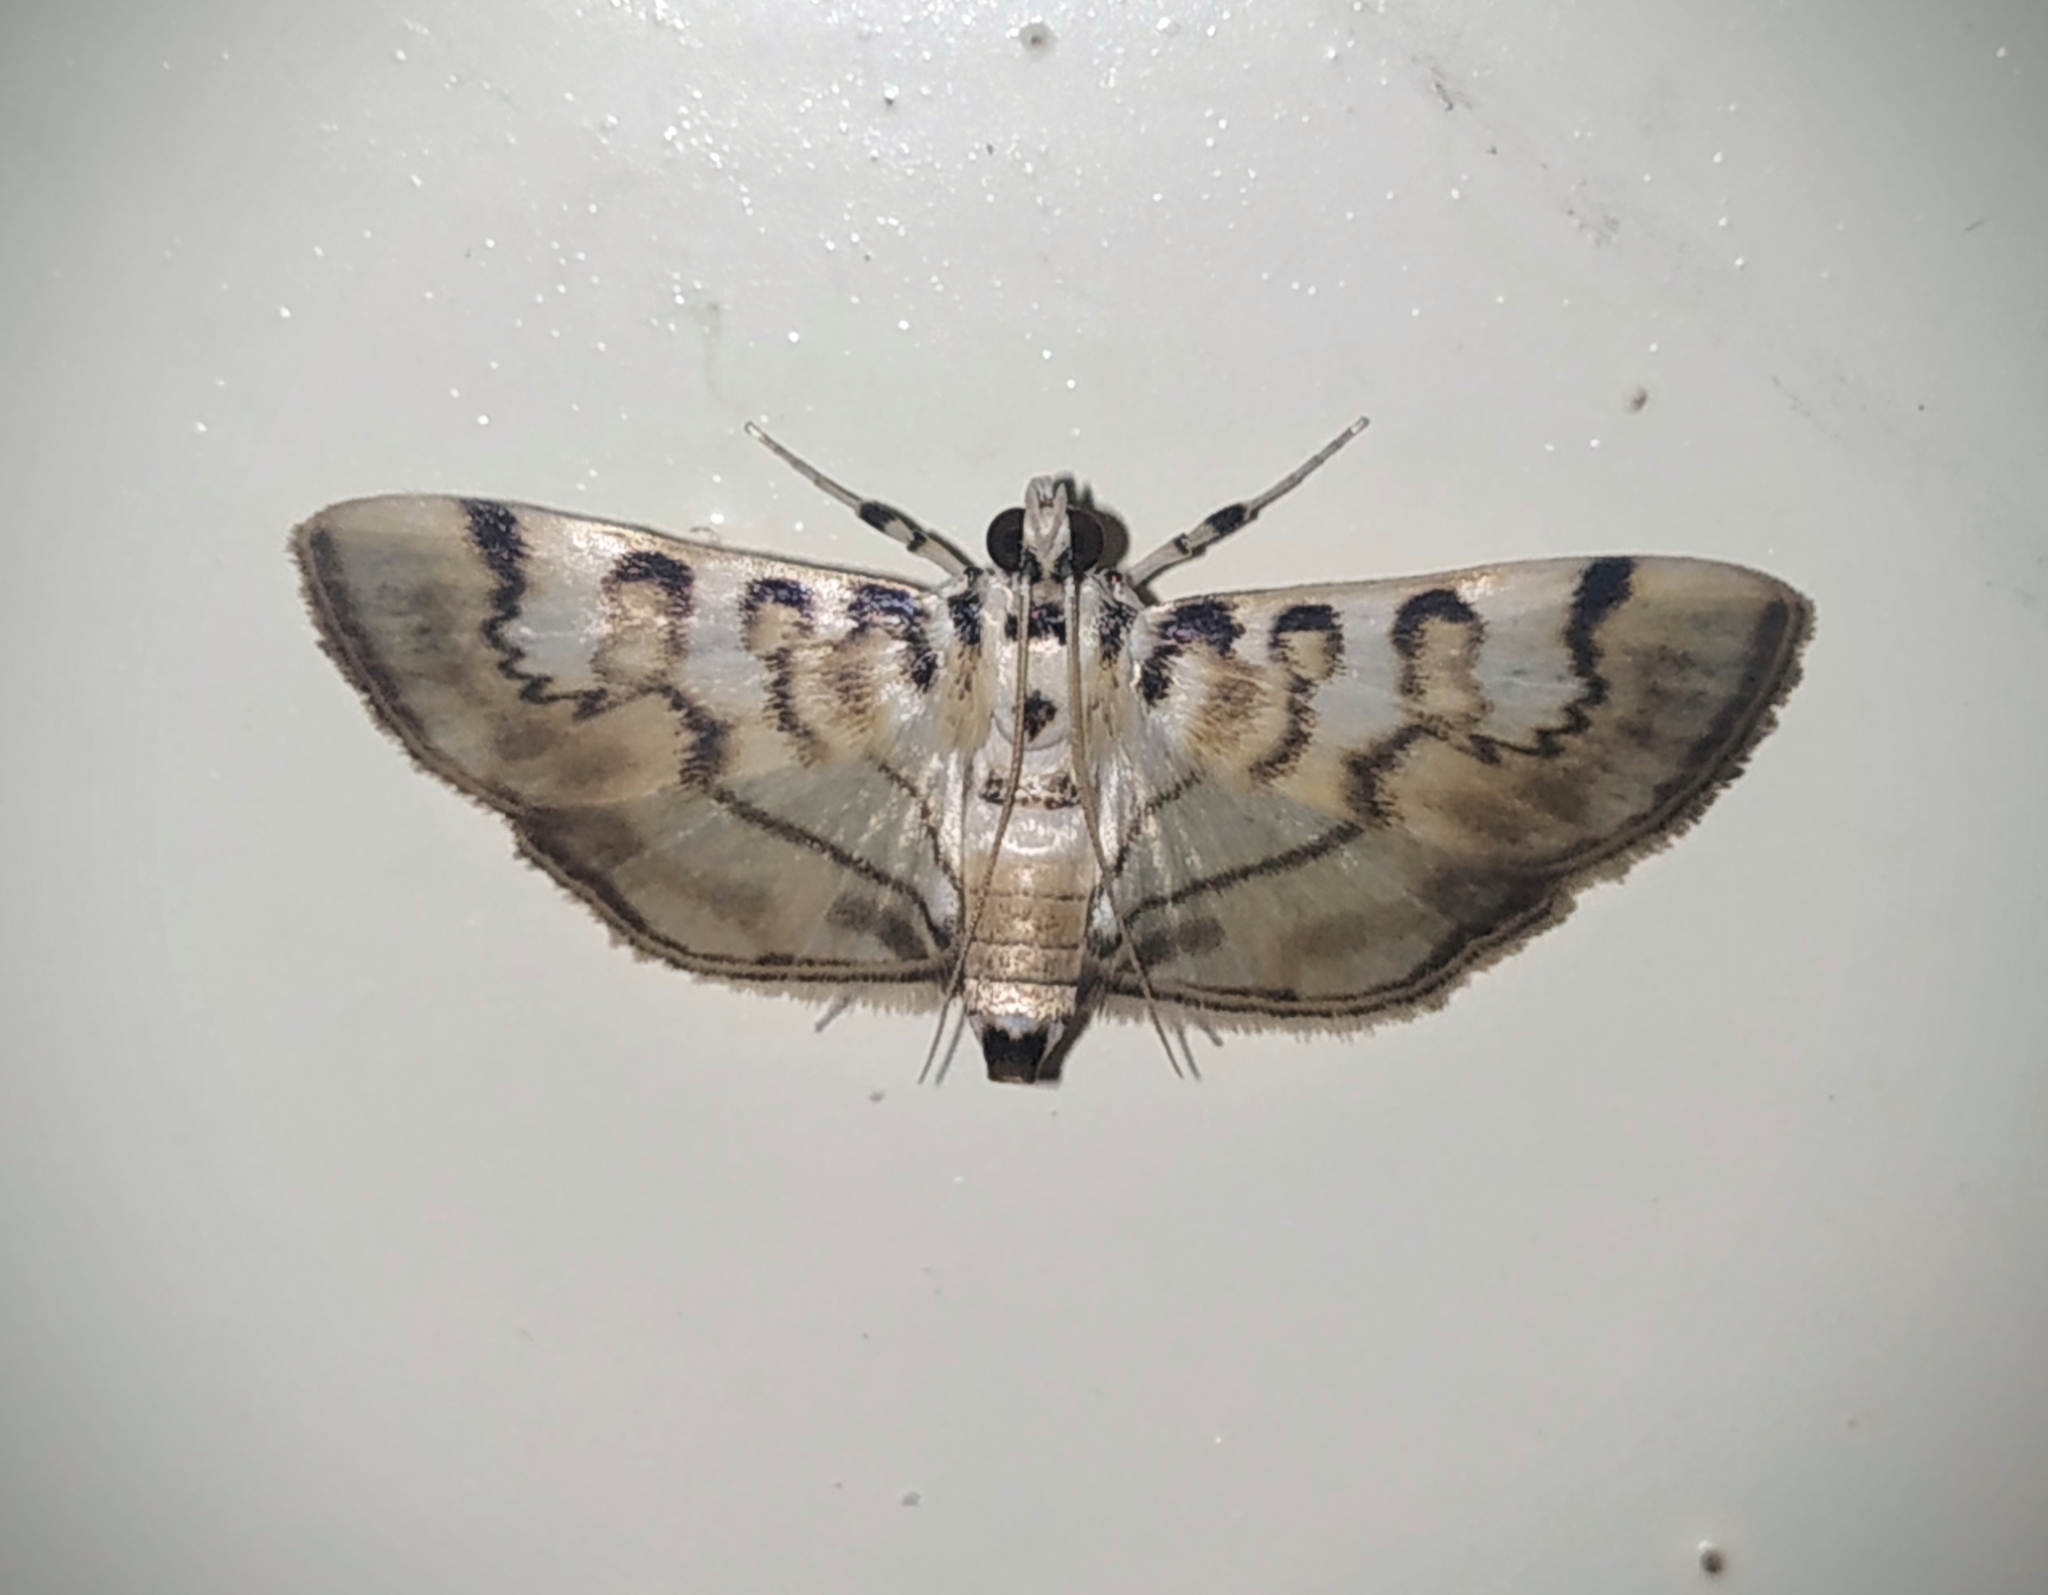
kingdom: Animalia
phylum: Arthropoda
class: Insecta
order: Lepidoptera
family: Crambidae
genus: Tabidia
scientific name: Tabidia aculealis
